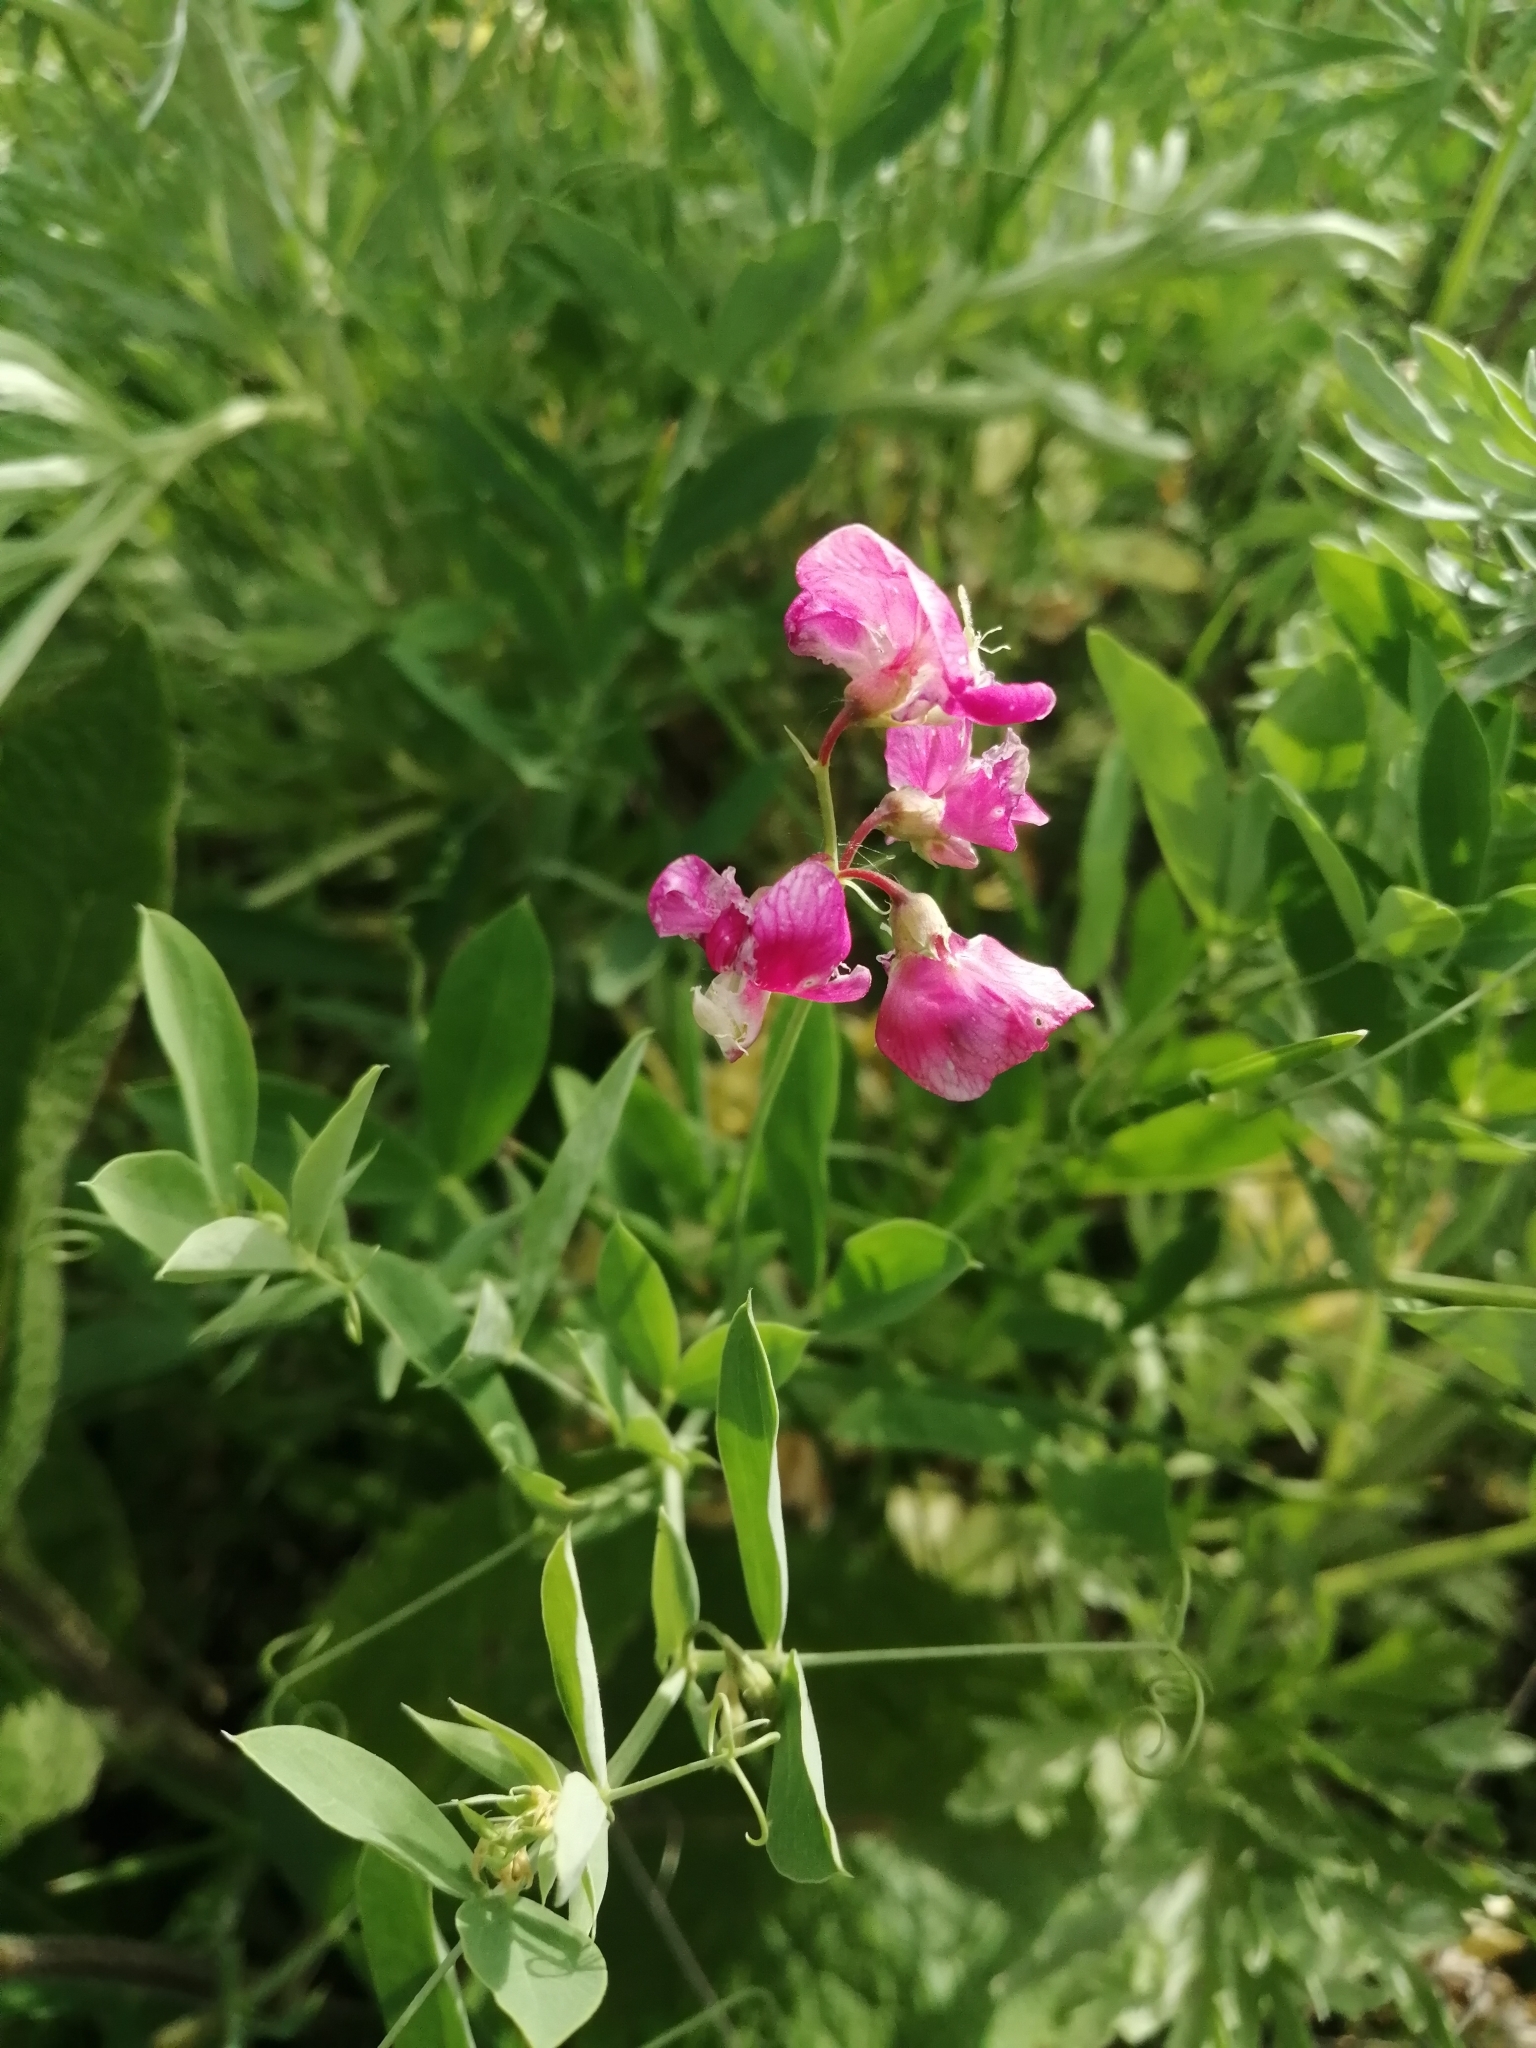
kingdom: Plantae
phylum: Tracheophyta
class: Magnoliopsida
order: Fabales
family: Fabaceae
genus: Lathyrus
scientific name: Lathyrus tuberosus
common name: Tuberous pea
